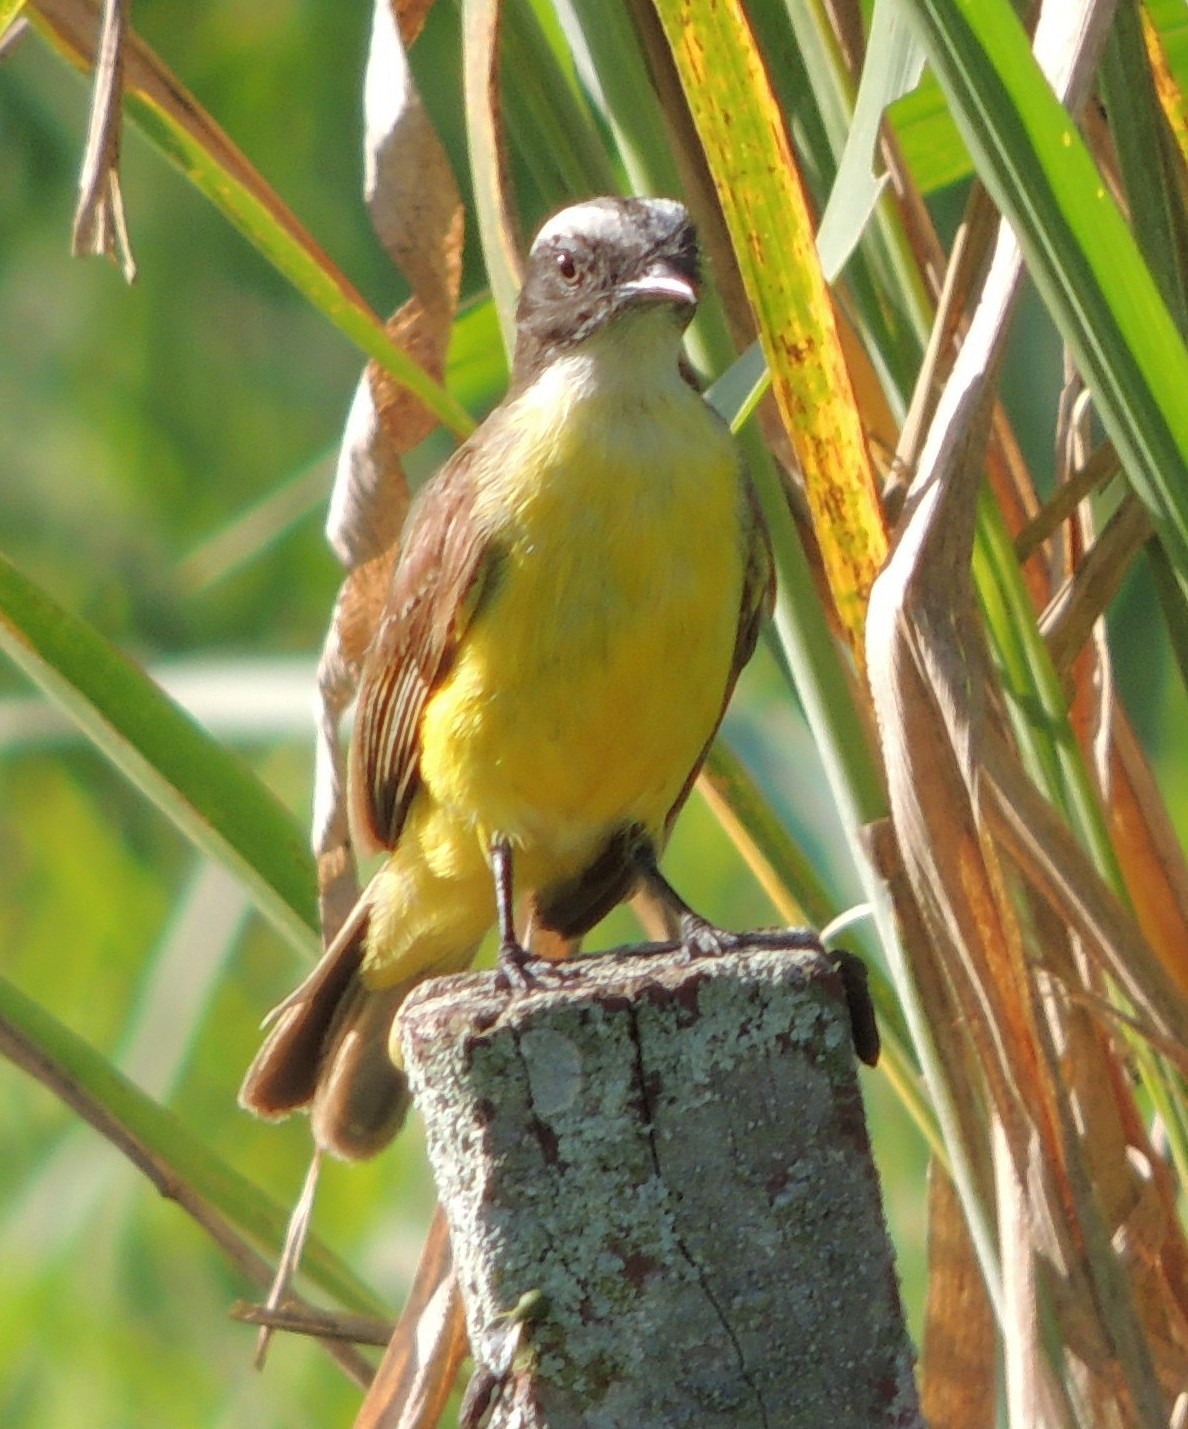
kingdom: Animalia
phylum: Chordata
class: Aves
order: Passeriformes
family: Tyrannidae
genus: Myiozetetes
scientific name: Myiozetetes similis
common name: Social flycatcher
